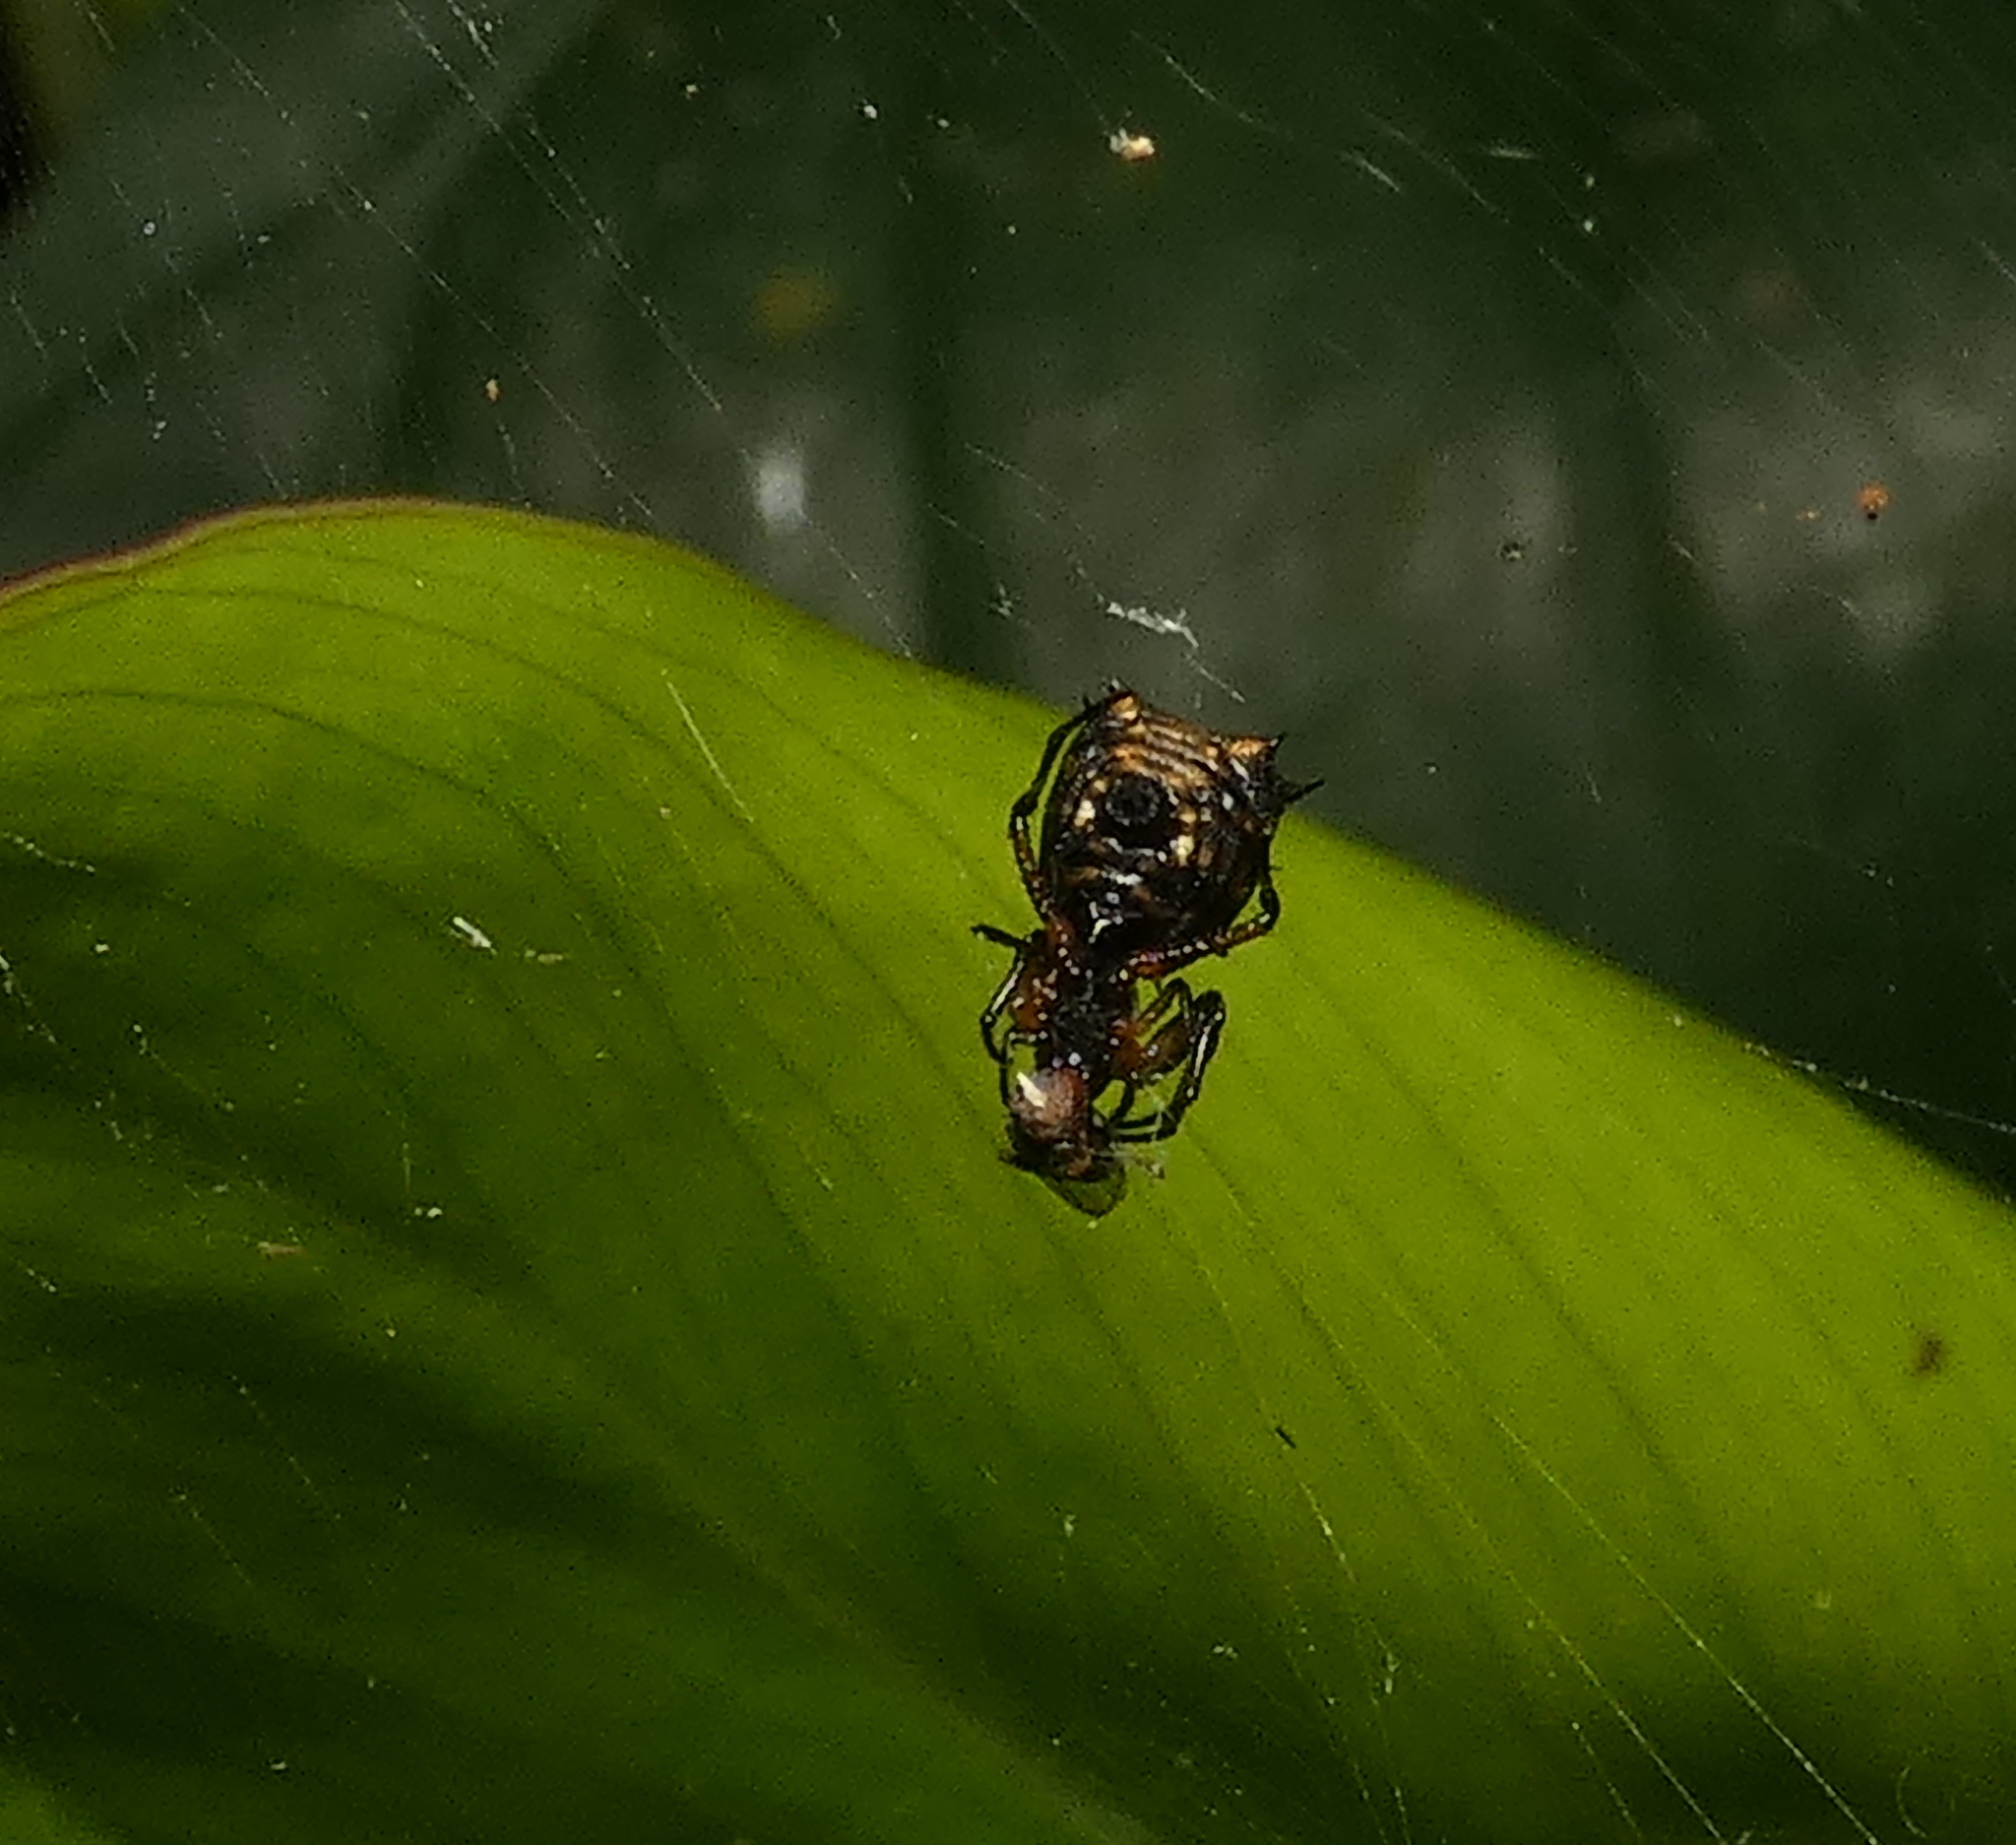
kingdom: Animalia
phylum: Arthropoda
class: Arachnida
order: Araneae
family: Araneidae
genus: Micrathena
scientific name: Micrathena picta
